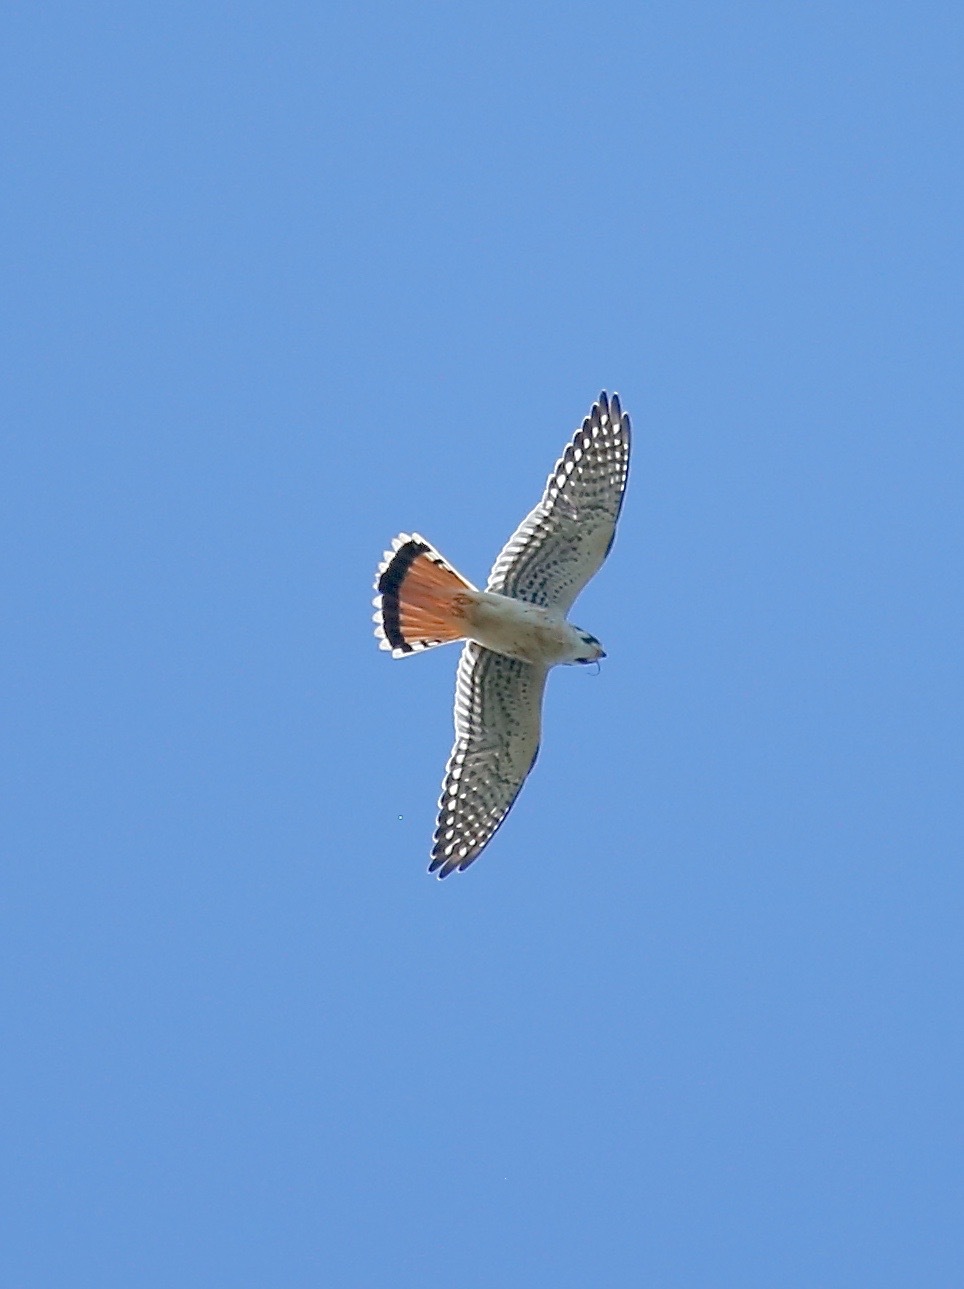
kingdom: Animalia
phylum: Chordata
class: Aves
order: Falconiformes
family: Falconidae
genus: Falco
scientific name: Falco sparverius
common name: American kestrel
